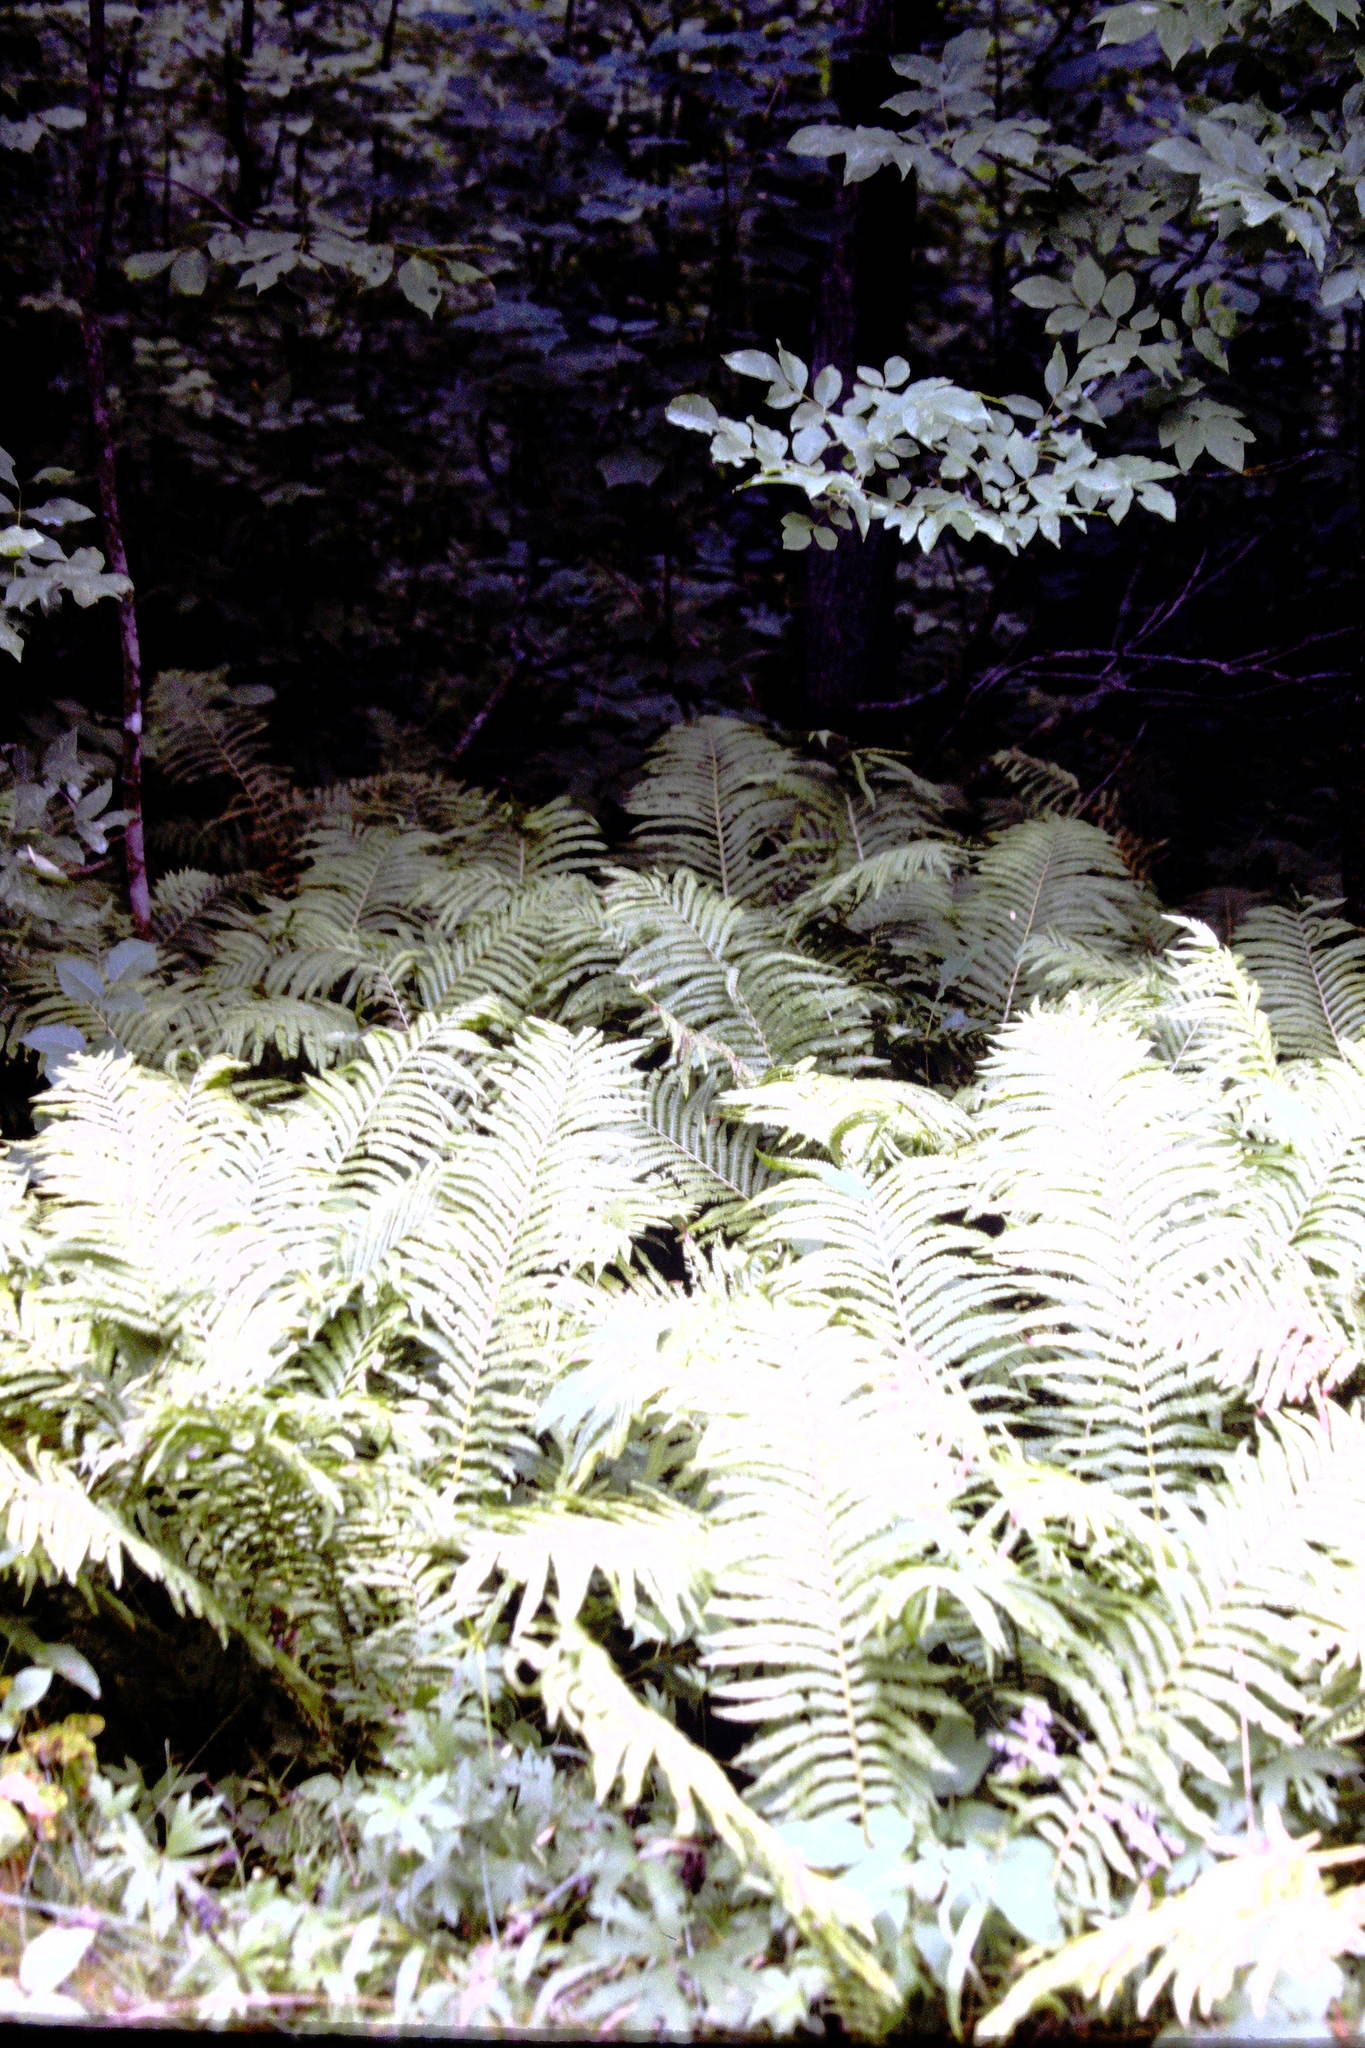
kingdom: Plantae
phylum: Tracheophyta
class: Polypodiopsida
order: Polypodiales
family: Onocleaceae
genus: Matteuccia
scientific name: Matteuccia struthiopteris
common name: Ostrich fern
